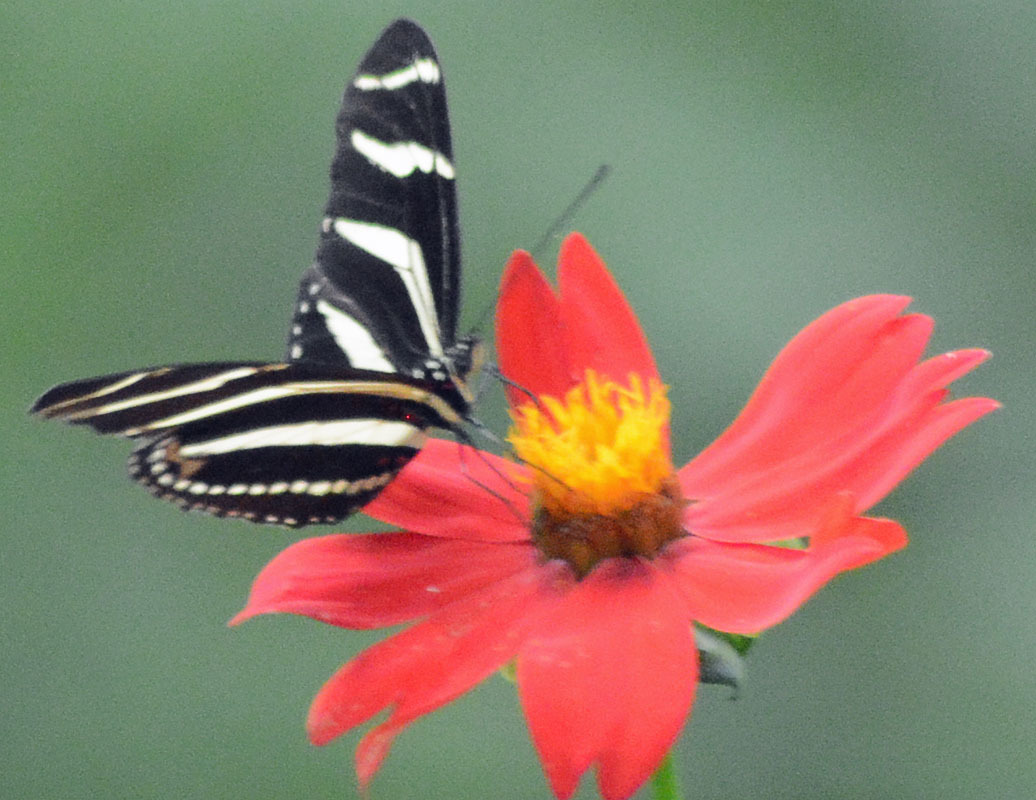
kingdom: Animalia
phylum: Arthropoda
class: Insecta
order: Lepidoptera
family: Nymphalidae
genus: Heliconius
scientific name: Heliconius charithonia
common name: Zebra long wing
